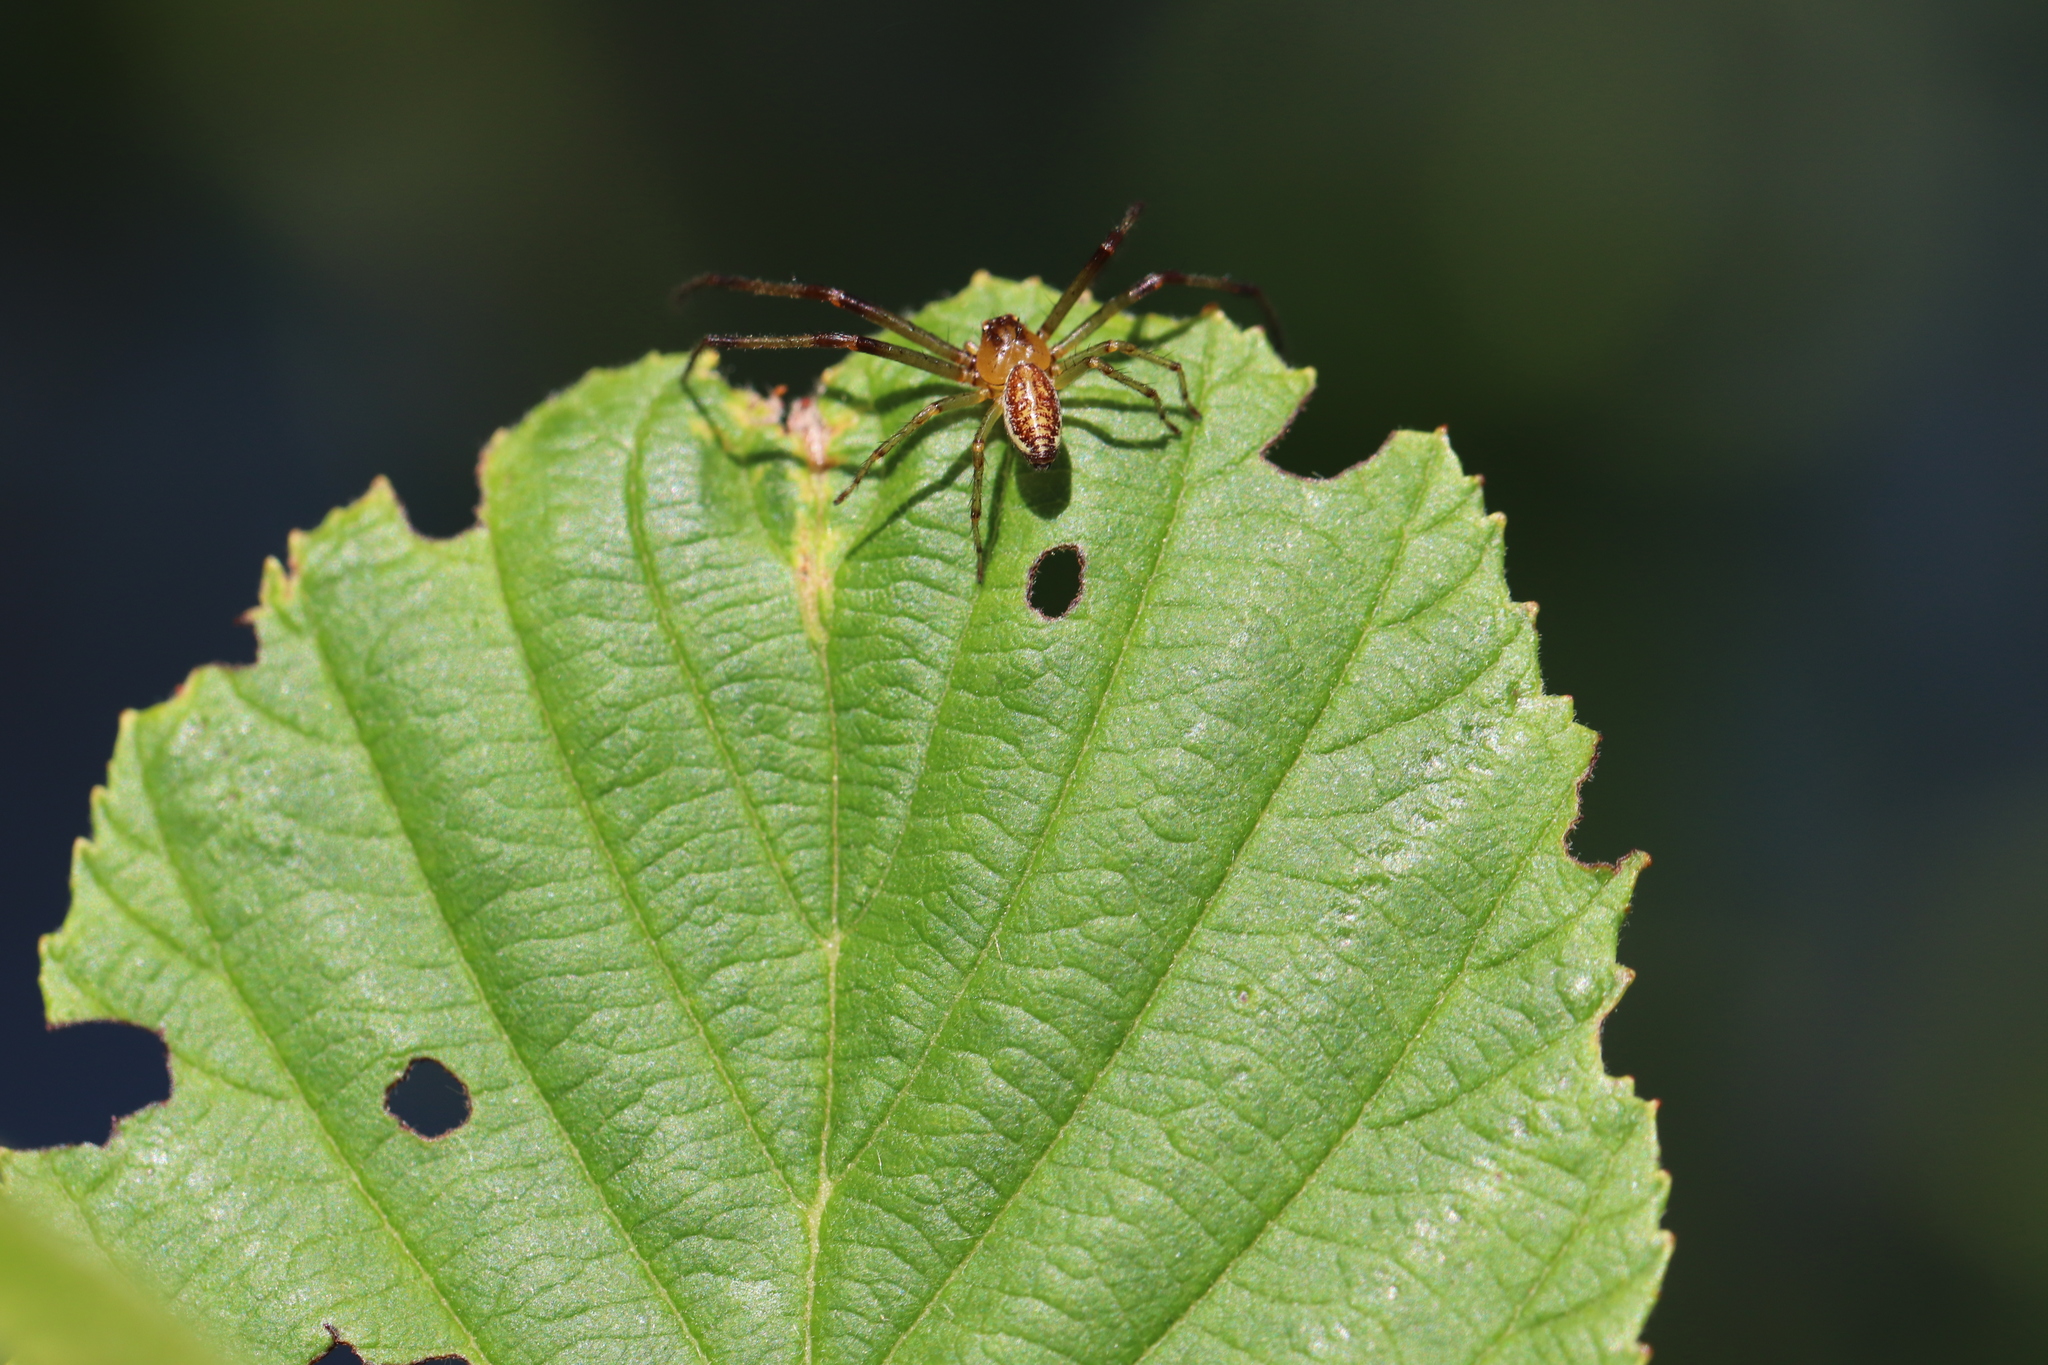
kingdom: Animalia
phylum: Arthropoda
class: Arachnida
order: Araneae
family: Thomisidae
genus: Diaea
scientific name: Diaea dorsata
